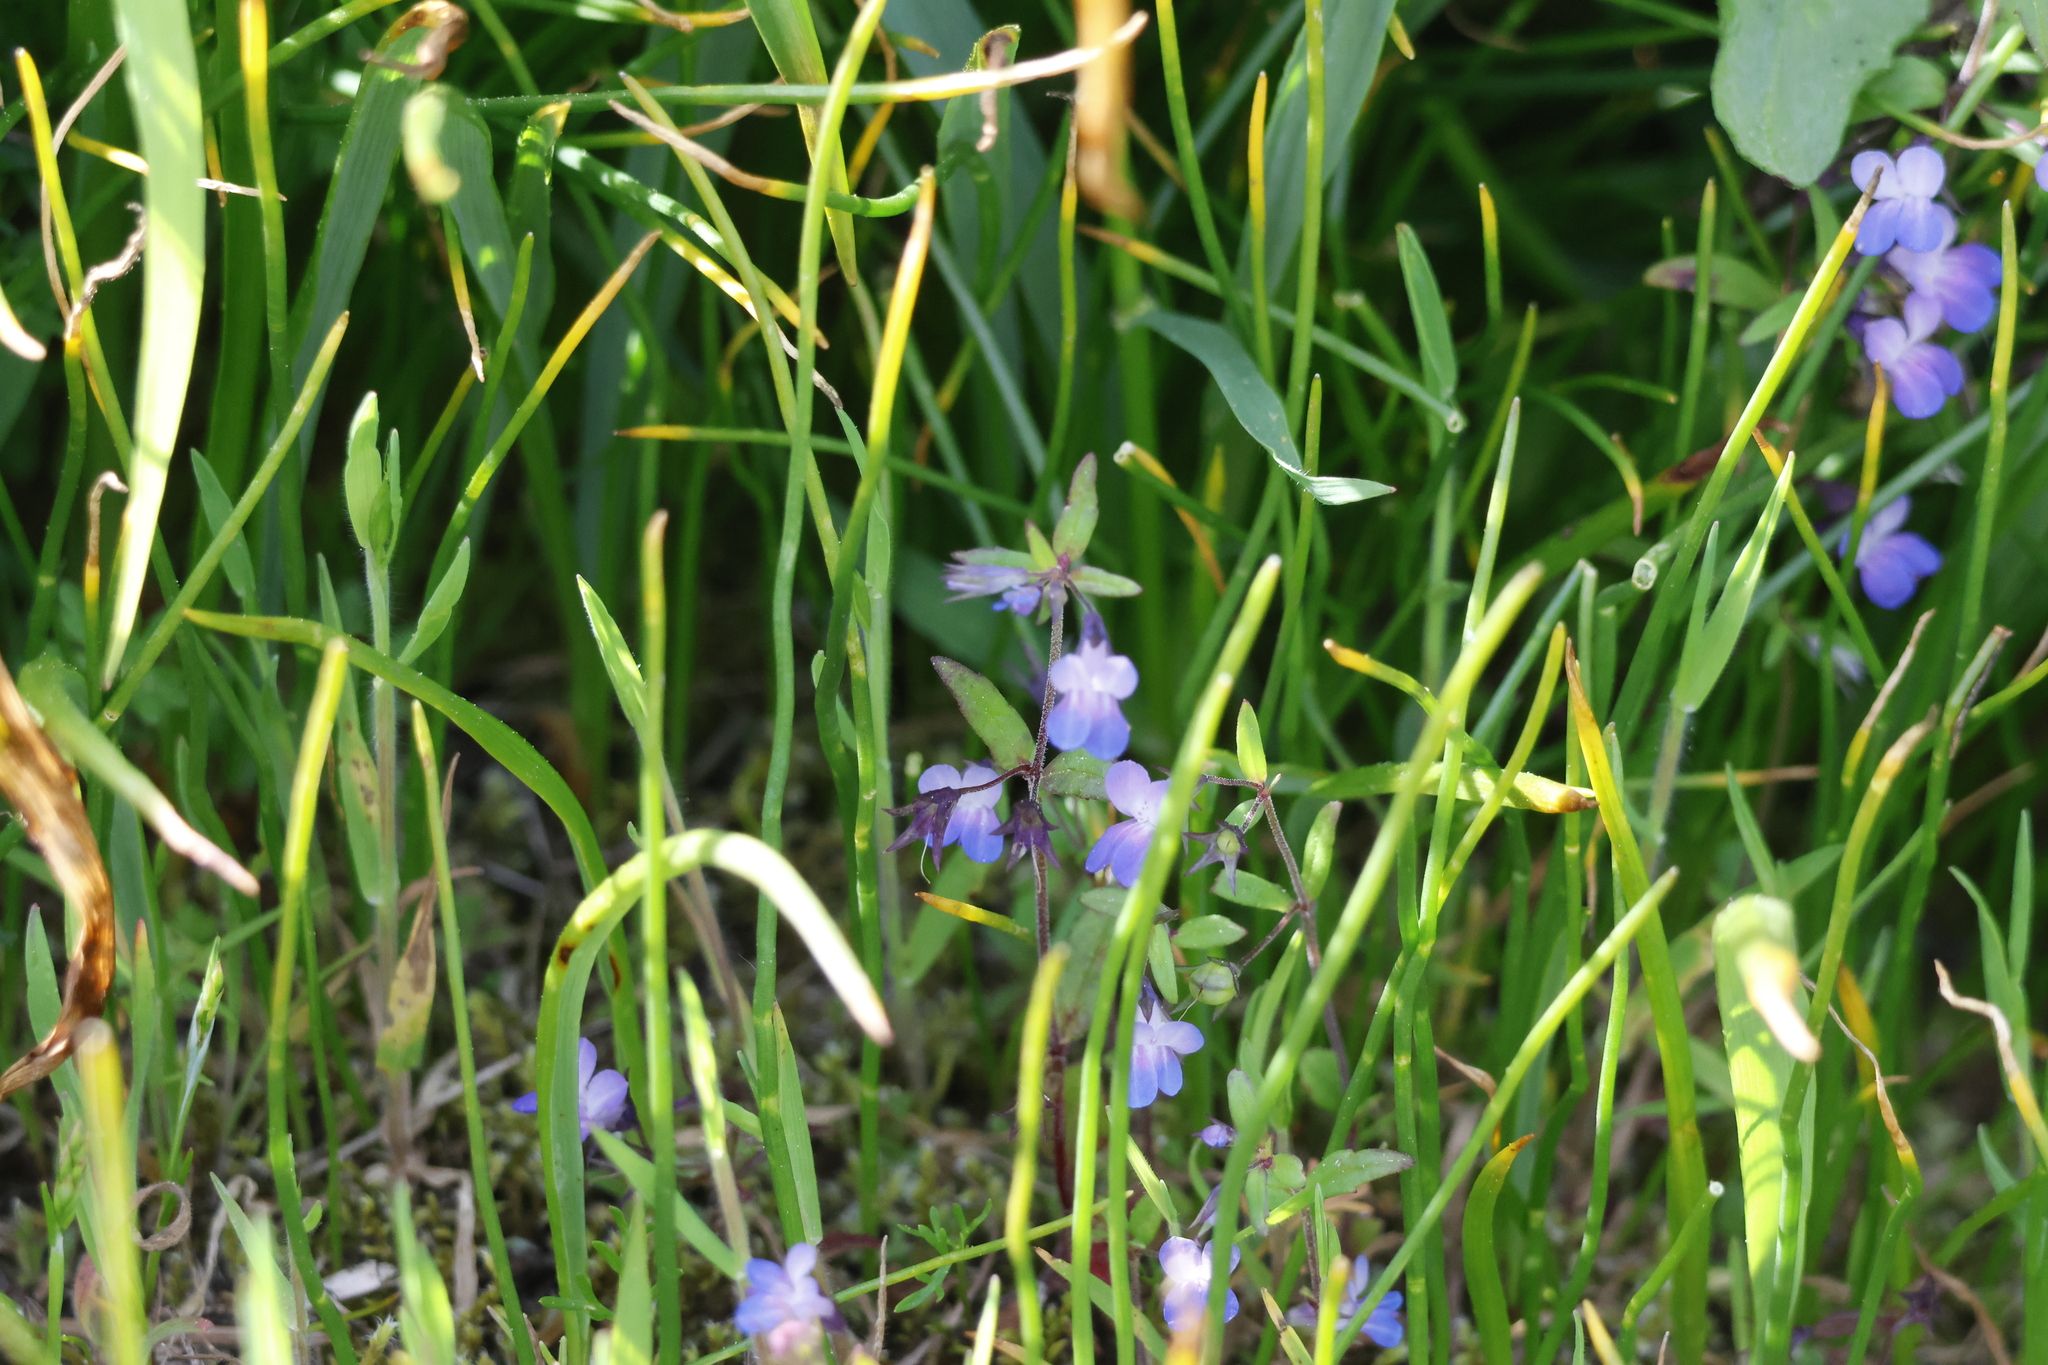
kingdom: Plantae
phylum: Tracheophyta
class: Magnoliopsida
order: Lamiales
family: Plantaginaceae
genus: Collinsia
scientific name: Collinsia parviflora
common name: Blue-lips
